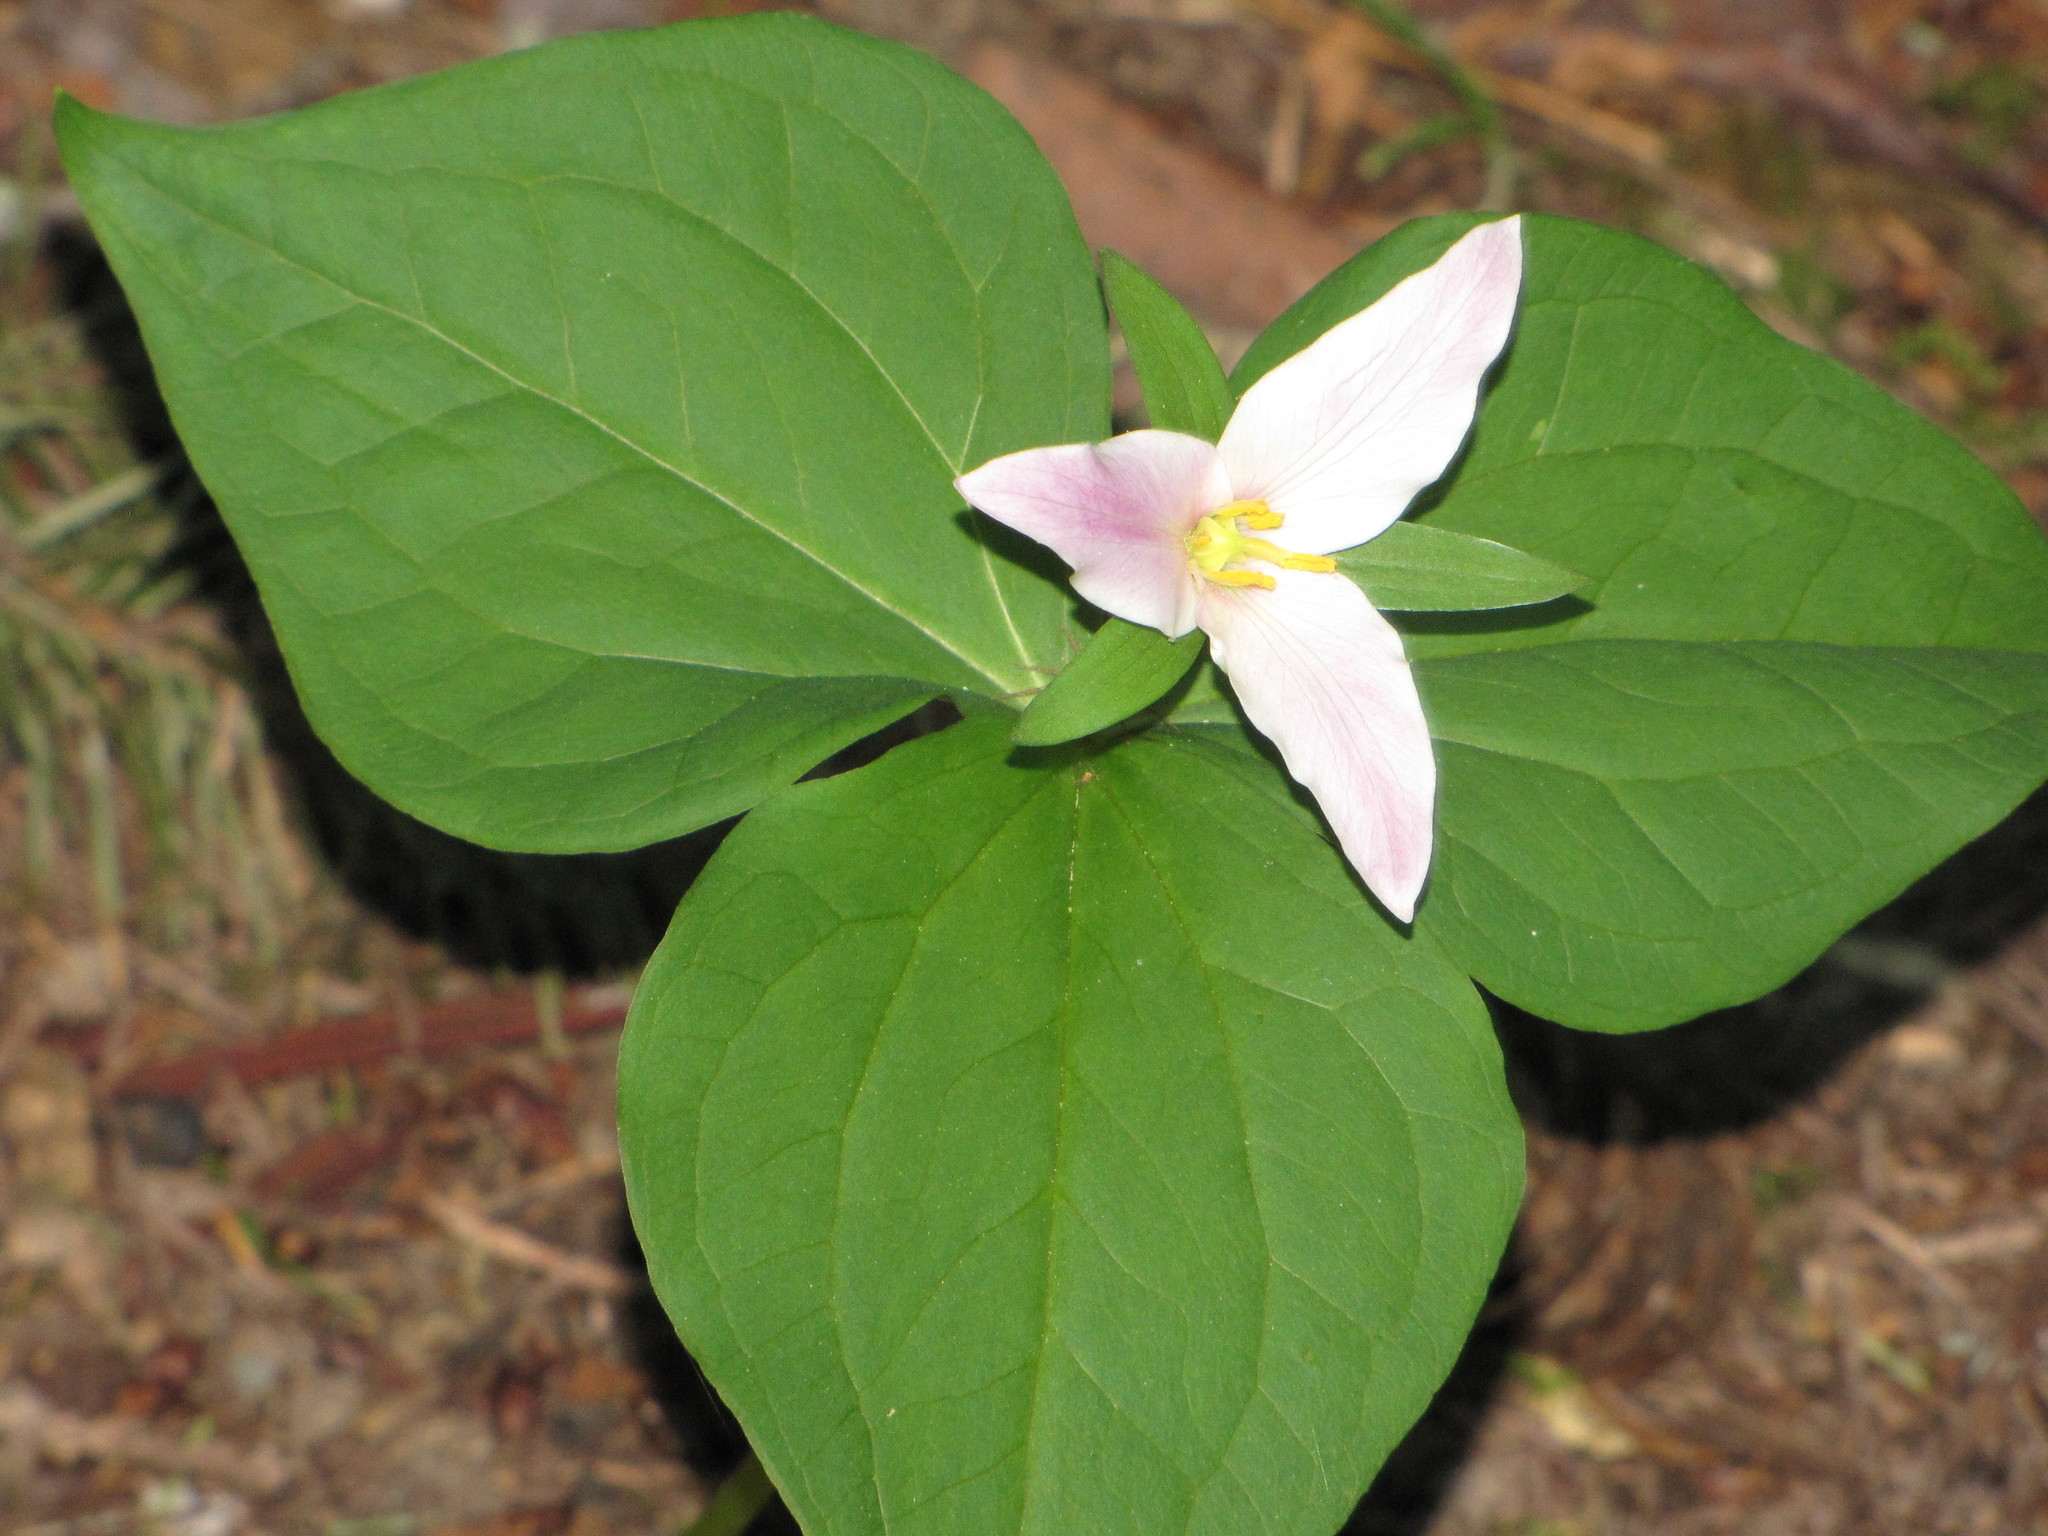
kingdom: Plantae
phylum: Tracheophyta
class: Liliopsida
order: Liliales
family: Melanthiaceae
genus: Trillium
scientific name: Trillium ovatum
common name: Pacific trillium
